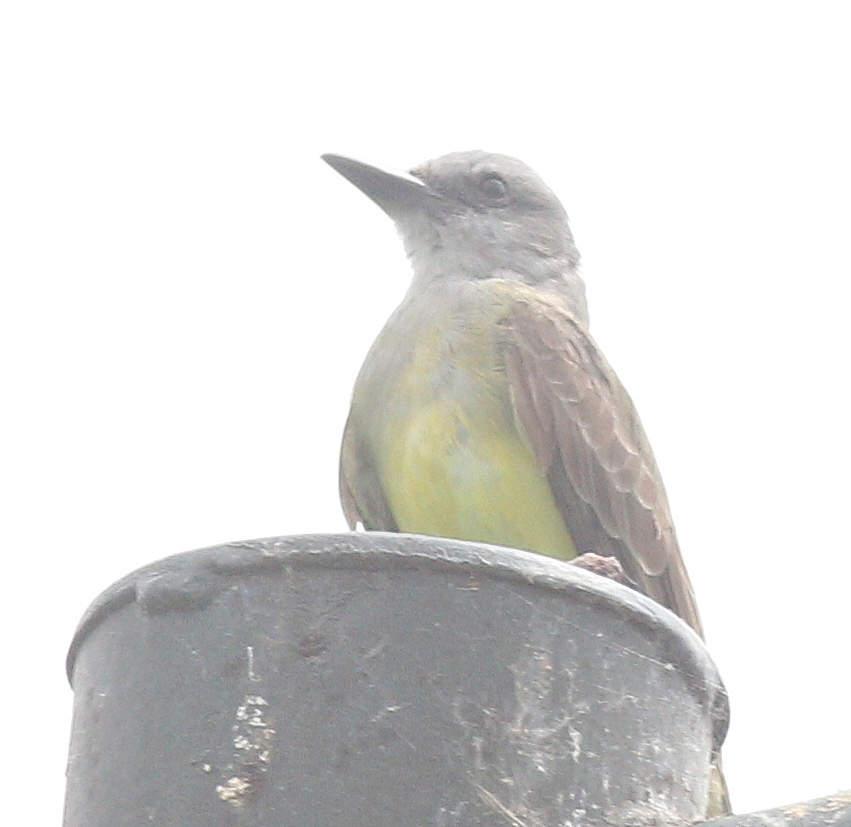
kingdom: Animalia
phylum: Chordata
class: Aves
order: Passeriformes
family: Tyrannidae
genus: Tyrannus
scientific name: Tyrannus melancholicus
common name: Tropical kingbird
